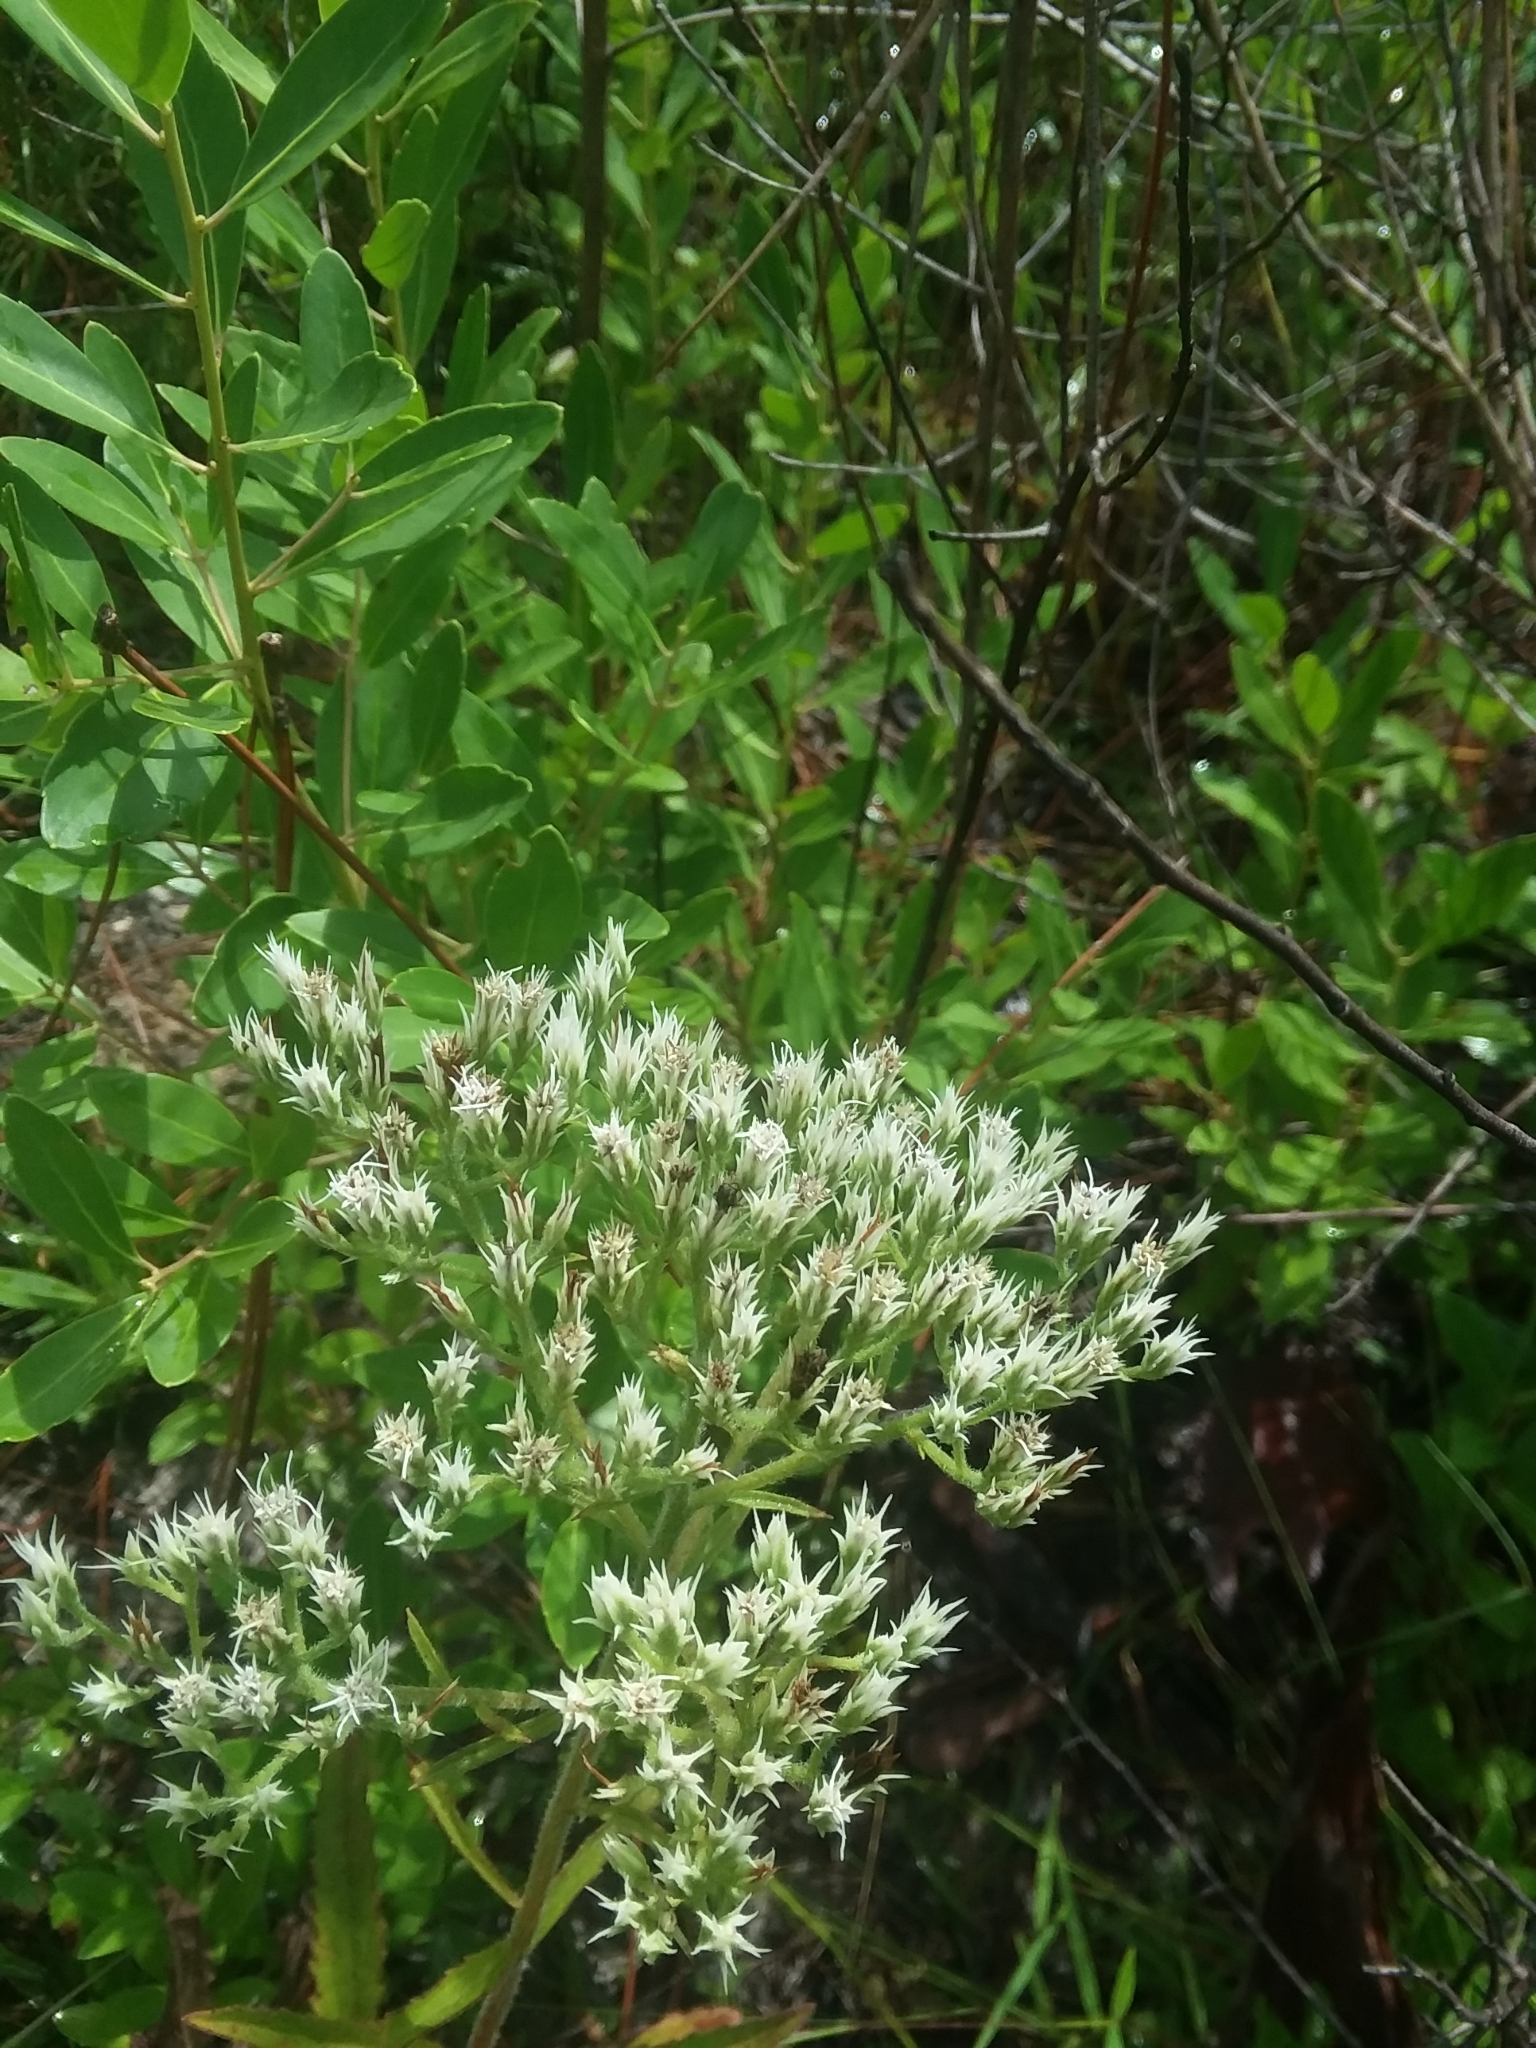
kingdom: Plantae
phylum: Tracheophyta
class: Magnoliopsida
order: Asterales
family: Asteraceae
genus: Eupatorium
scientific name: Eupatorium album
